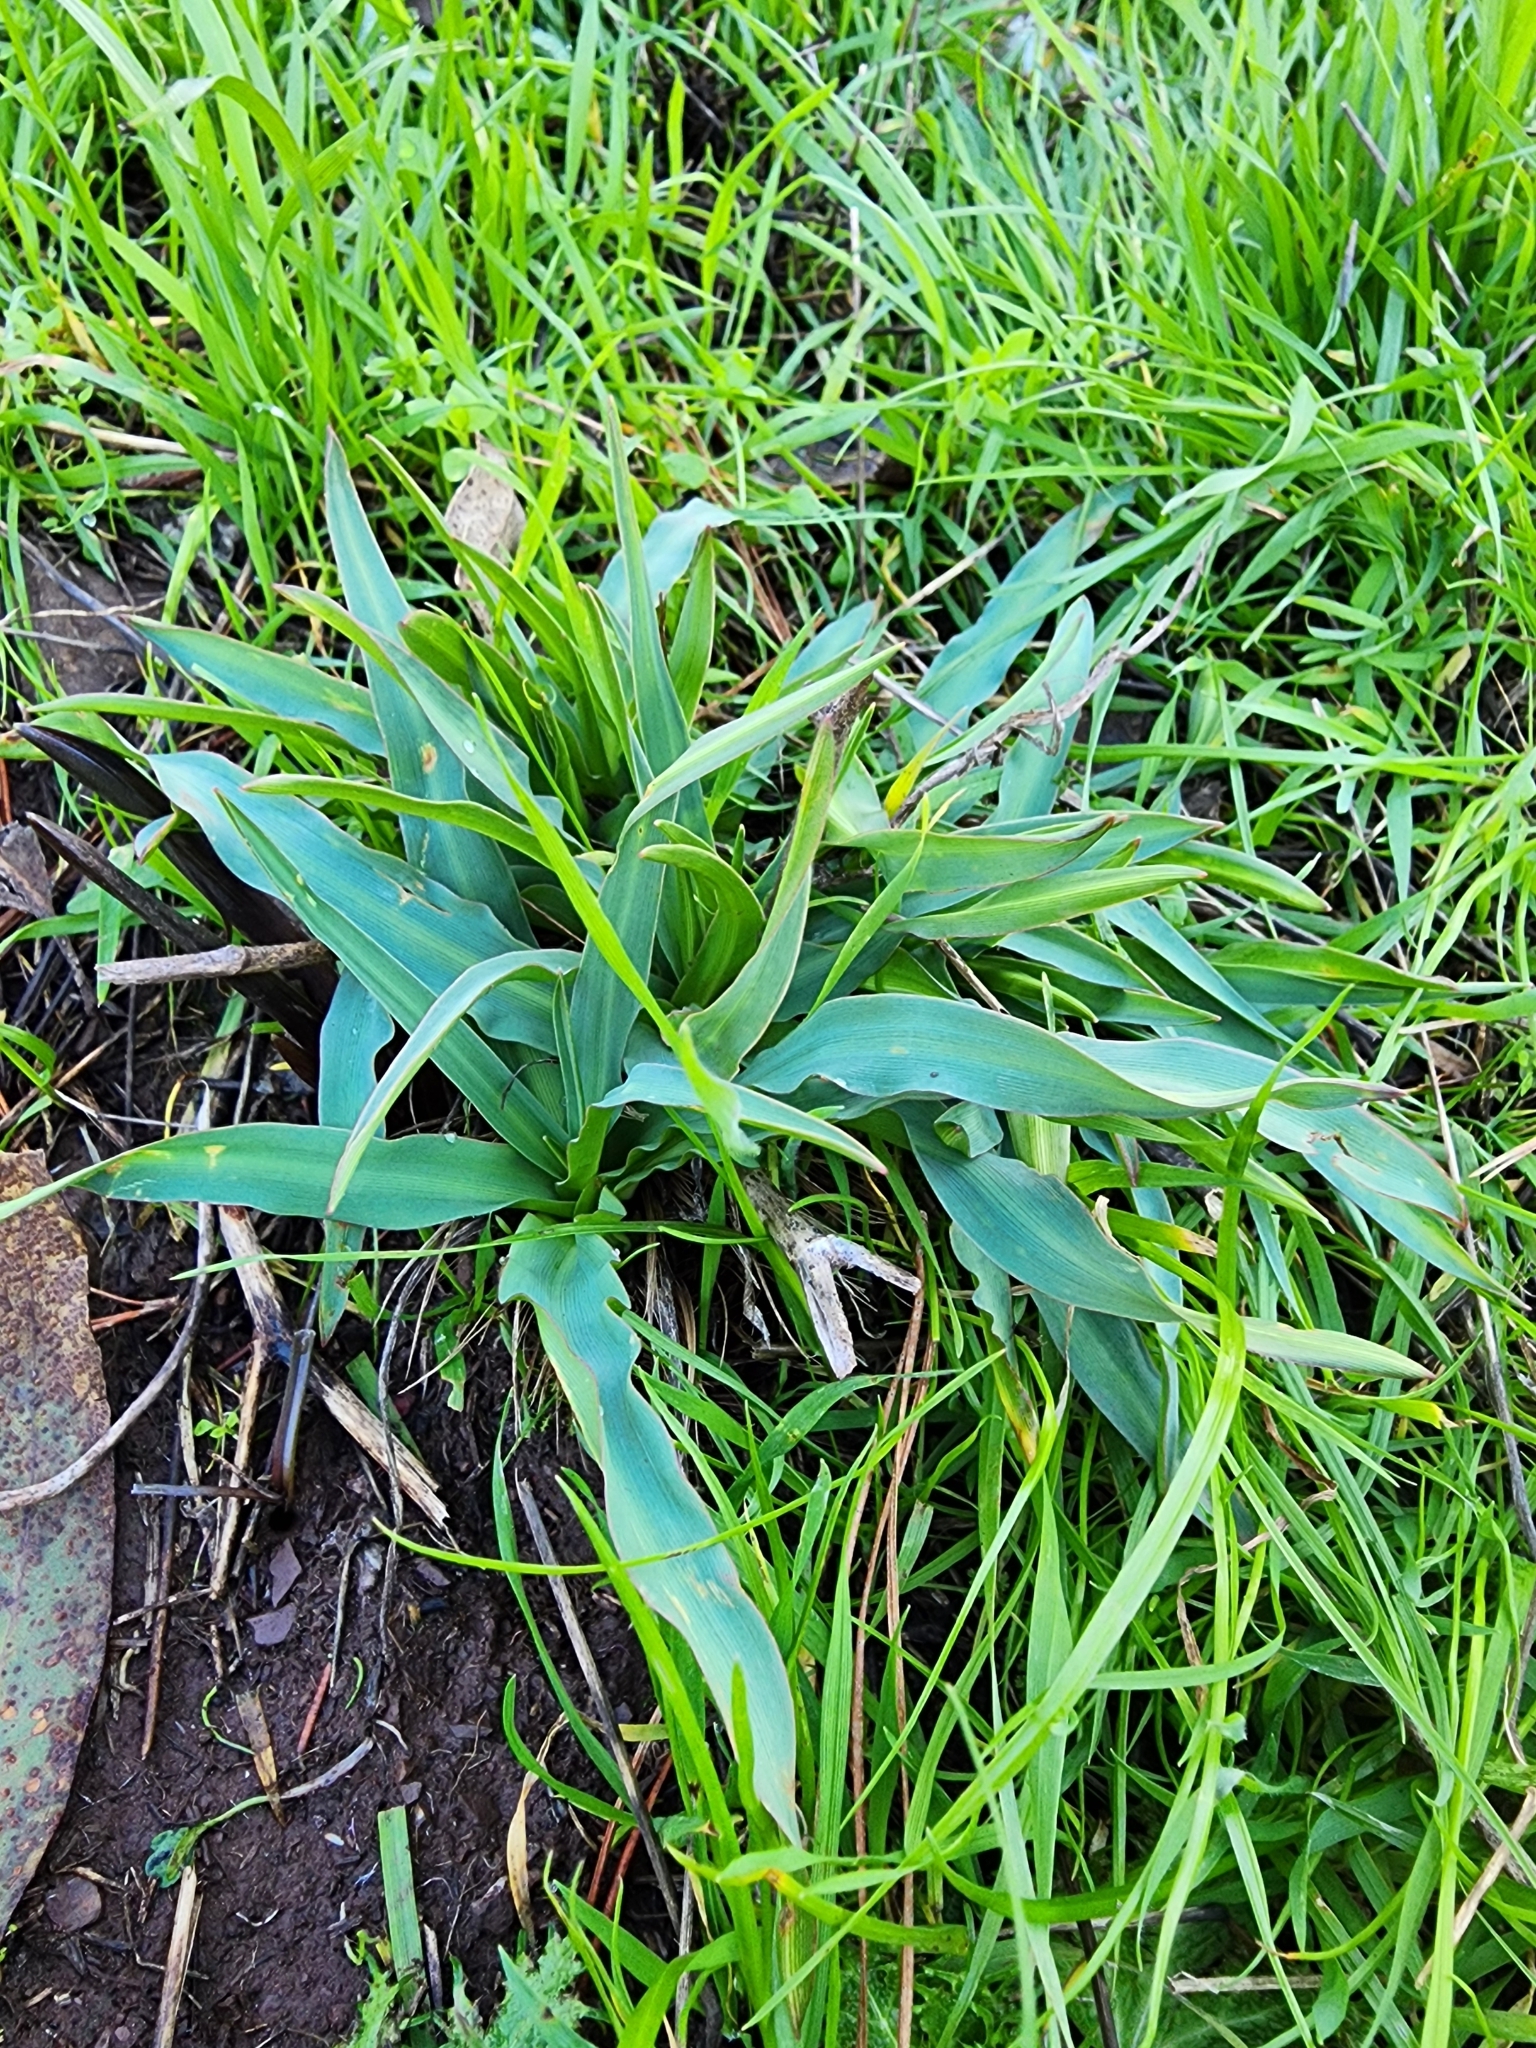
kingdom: Plantae
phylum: Tracheophyta
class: Liliopsida
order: Asparagales
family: Asparagaceae
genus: Chlorogalum
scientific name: Chlorogalum pomeridianum
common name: Amole
